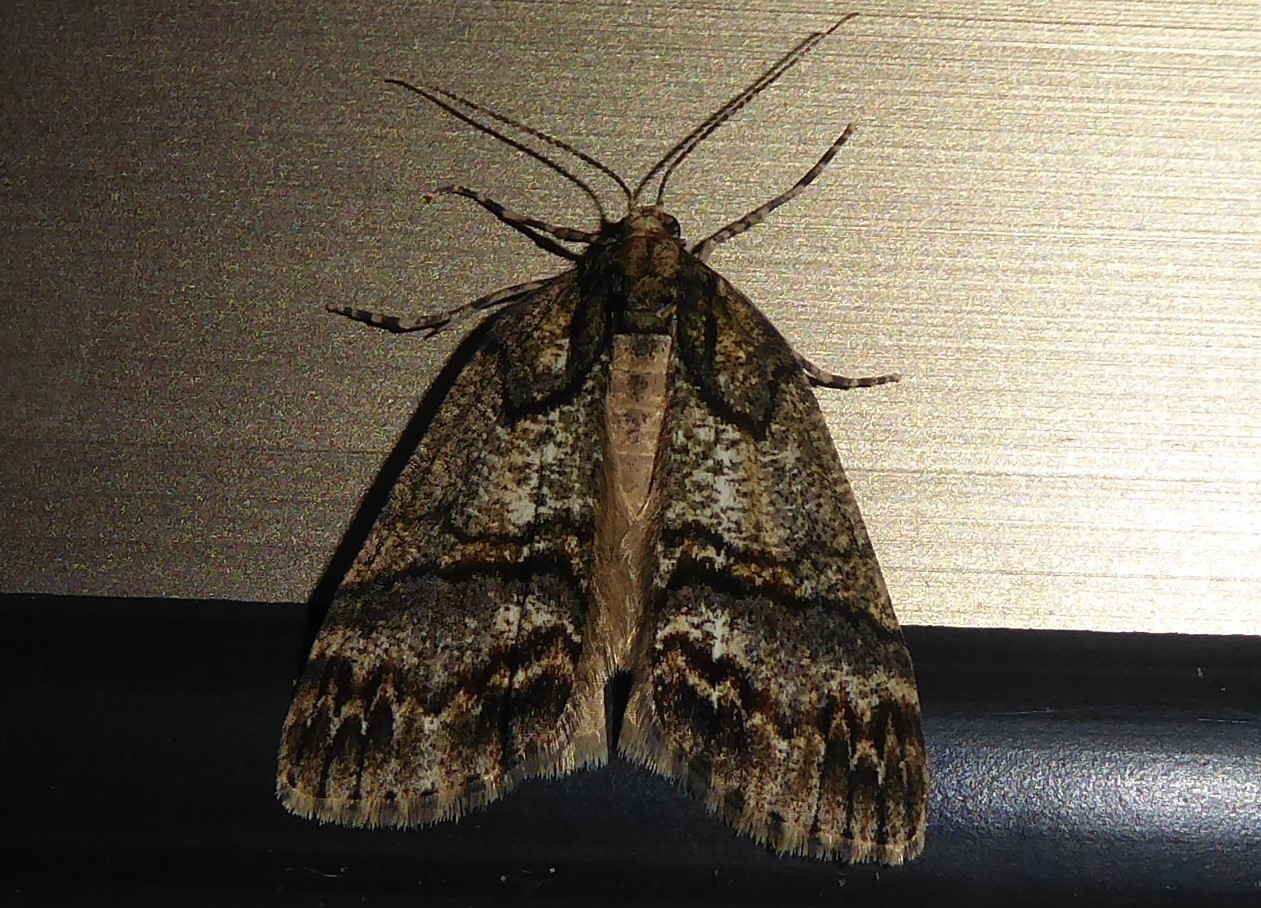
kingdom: Animalia
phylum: Arthropoda
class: Insecta
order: Lepidoptera
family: Geometridae
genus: Chalastra
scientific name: Chalastra ochrea
